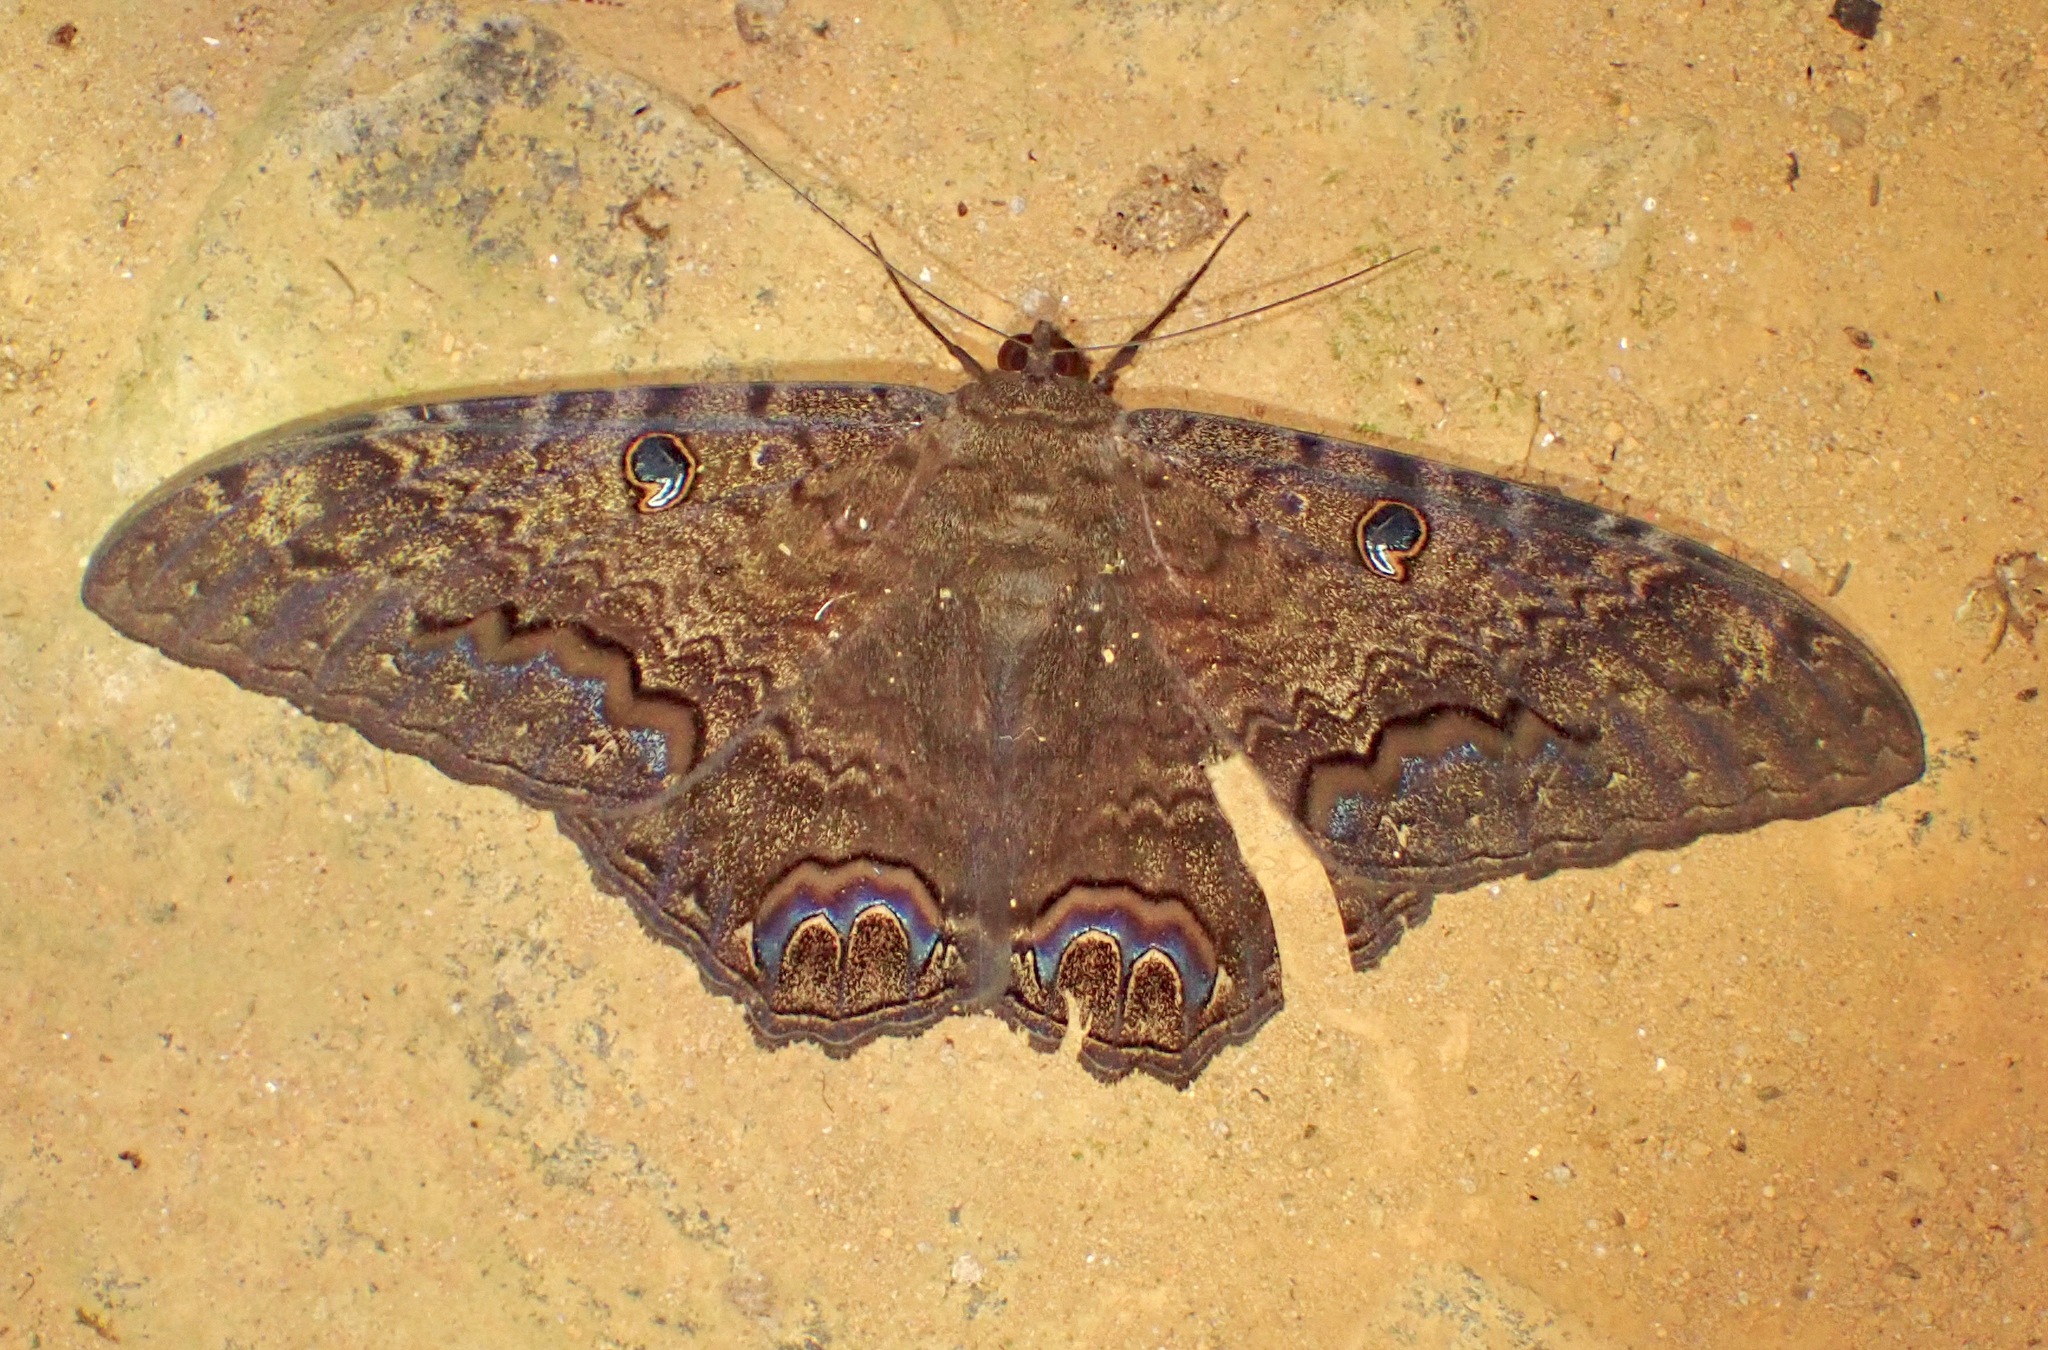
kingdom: Animalia
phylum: Arthropoda
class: Insecta
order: Lepidoptera
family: Erebidae
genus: Ascalapha
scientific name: Ascalapha odorata
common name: Black witch
